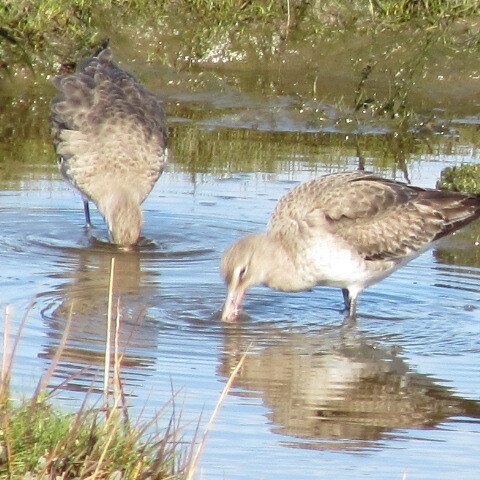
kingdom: Animalia
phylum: Chordata
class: Aves
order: Charadriiformes
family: Scolopacidae
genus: Limosa
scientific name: Limosa limosa
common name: Black-tailed godwit
